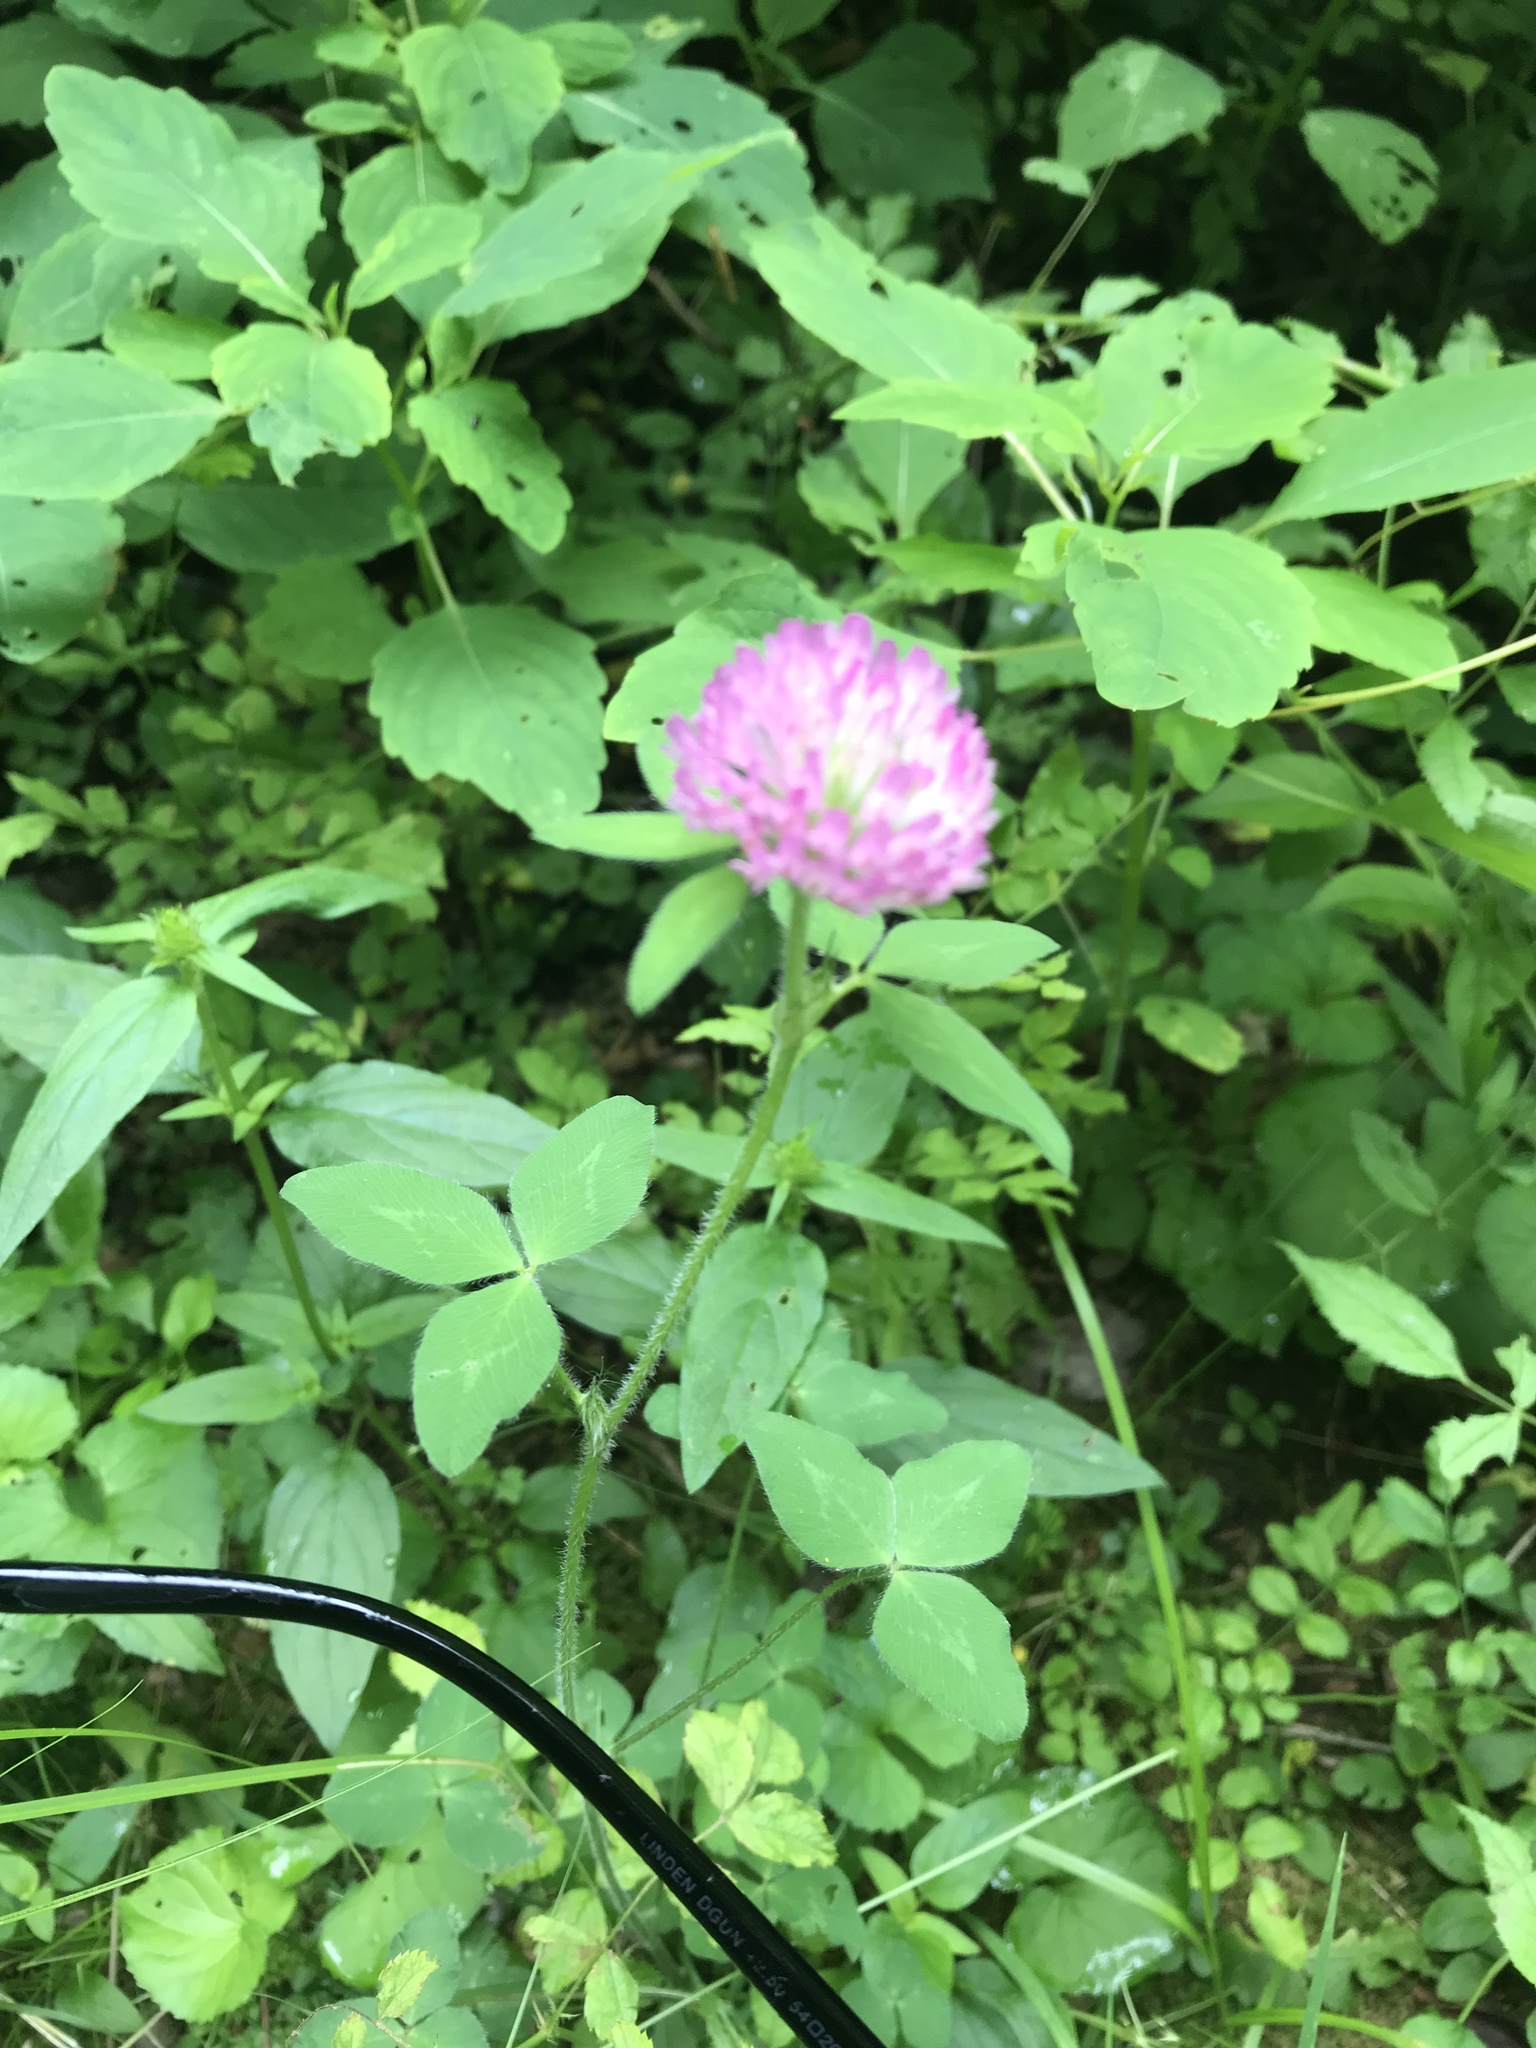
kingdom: Plantae
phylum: Tracheophyta
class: Magnoliopsida
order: Fabales
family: Fabaceae
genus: Trifolium
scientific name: Trifolium pratense
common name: Red clover
